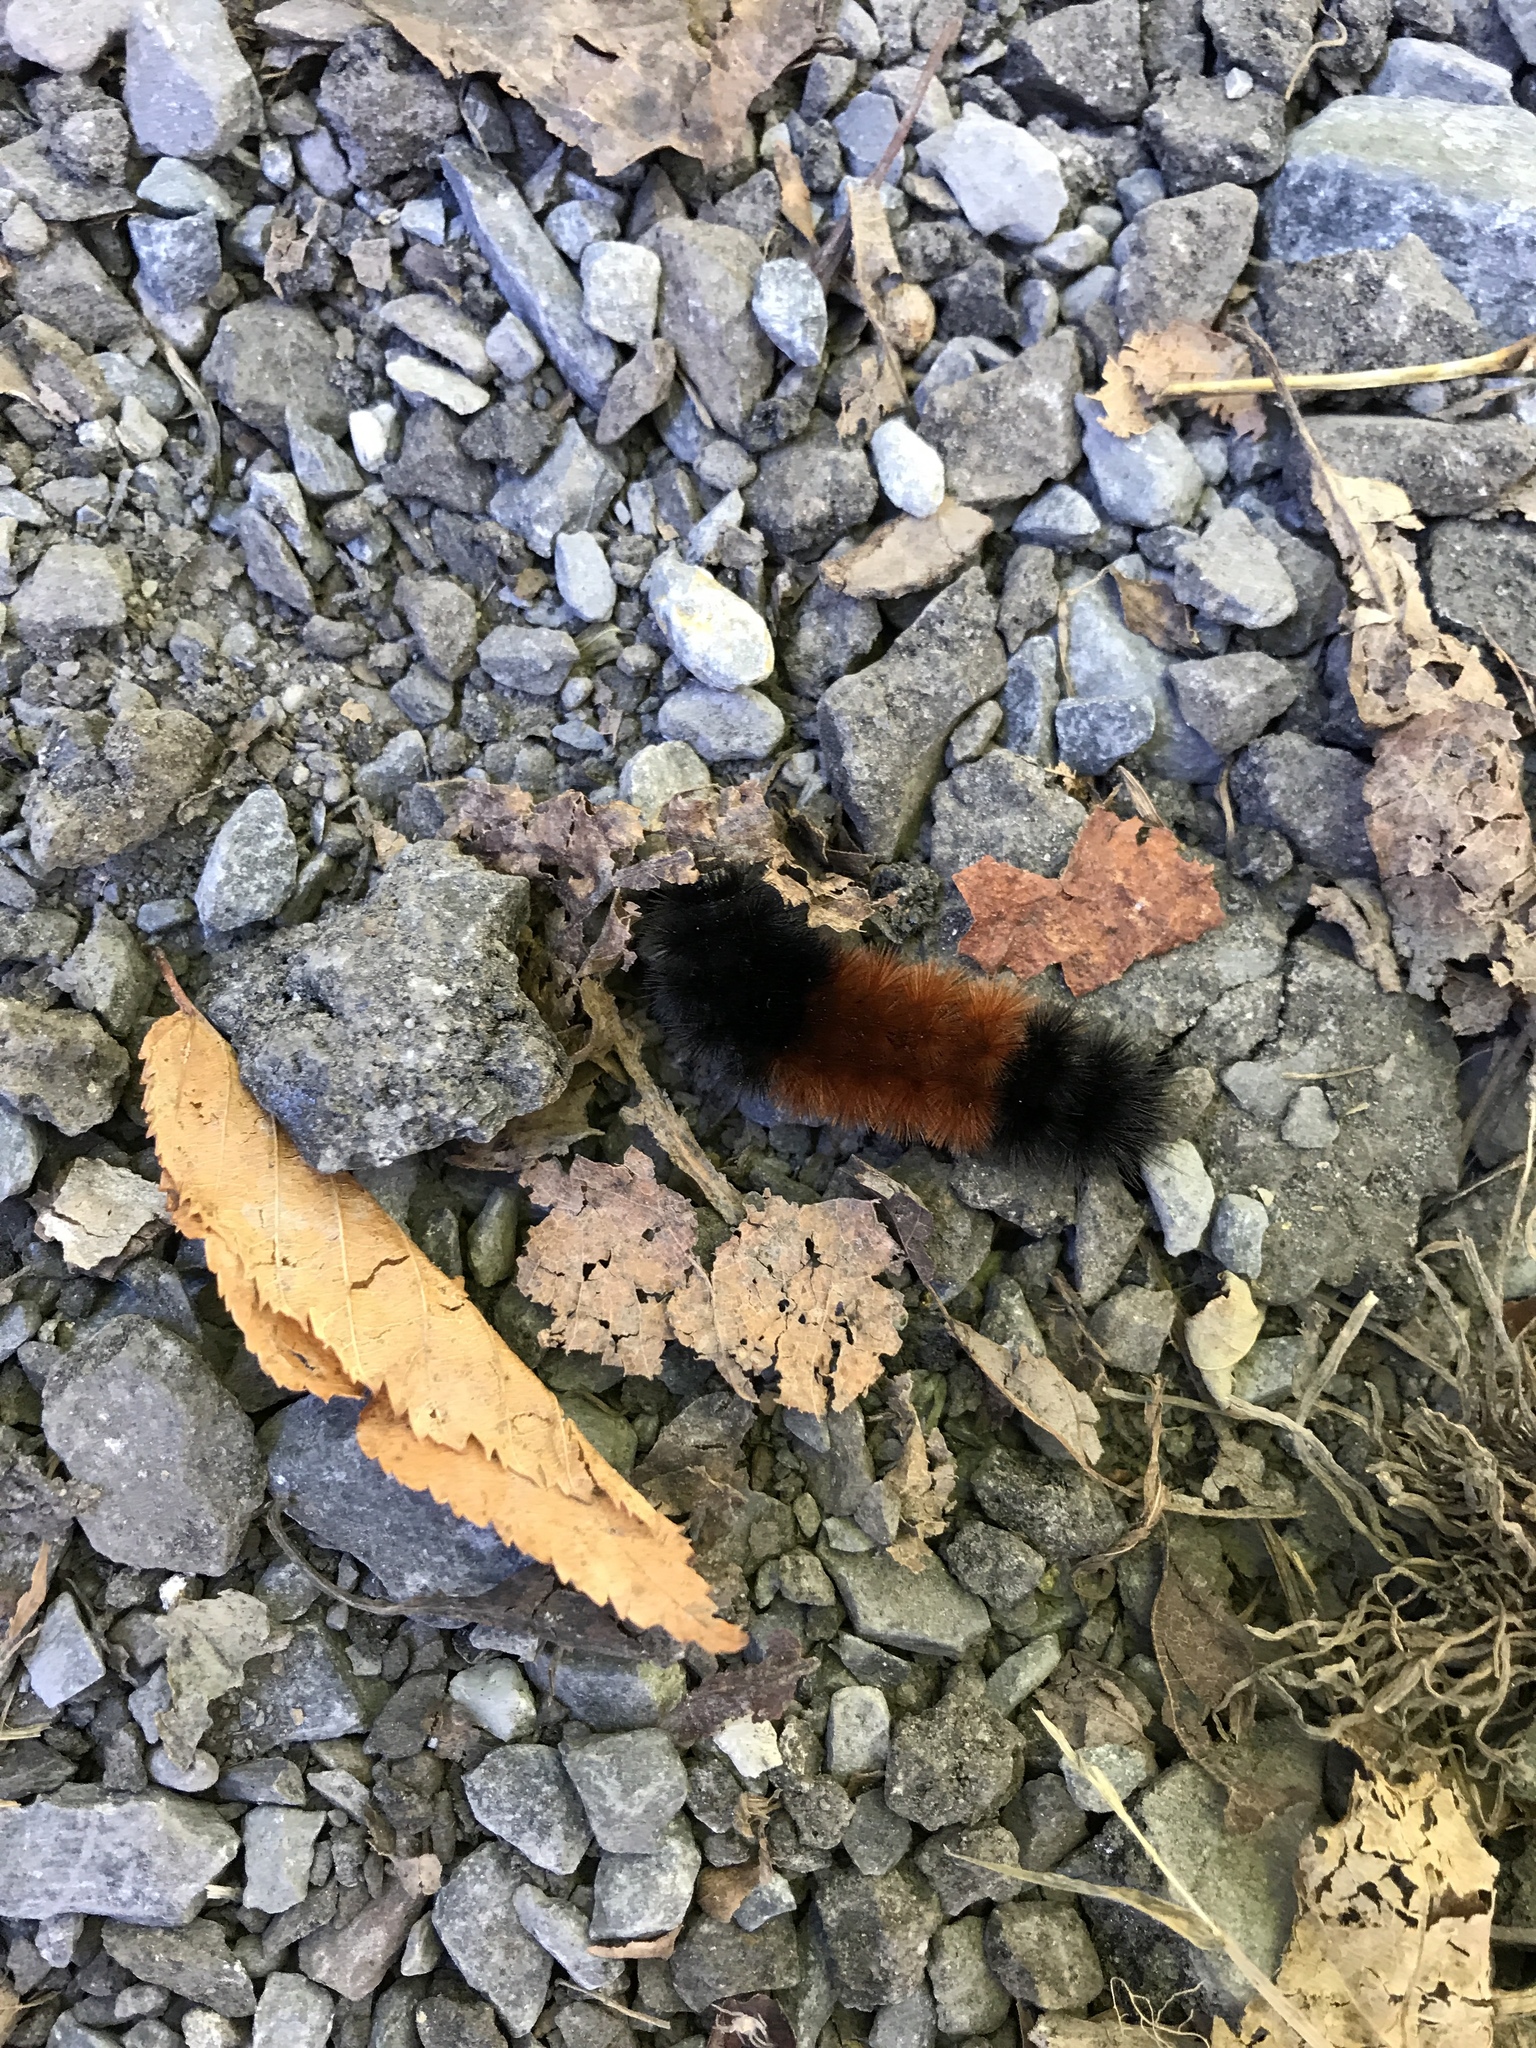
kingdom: Animalia
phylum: Arthropoda
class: Insecta
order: Lepidoptera
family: Erebidae
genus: Pyrrharctia
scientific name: Pyrrharctia isabella
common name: Isabella tiger moth
